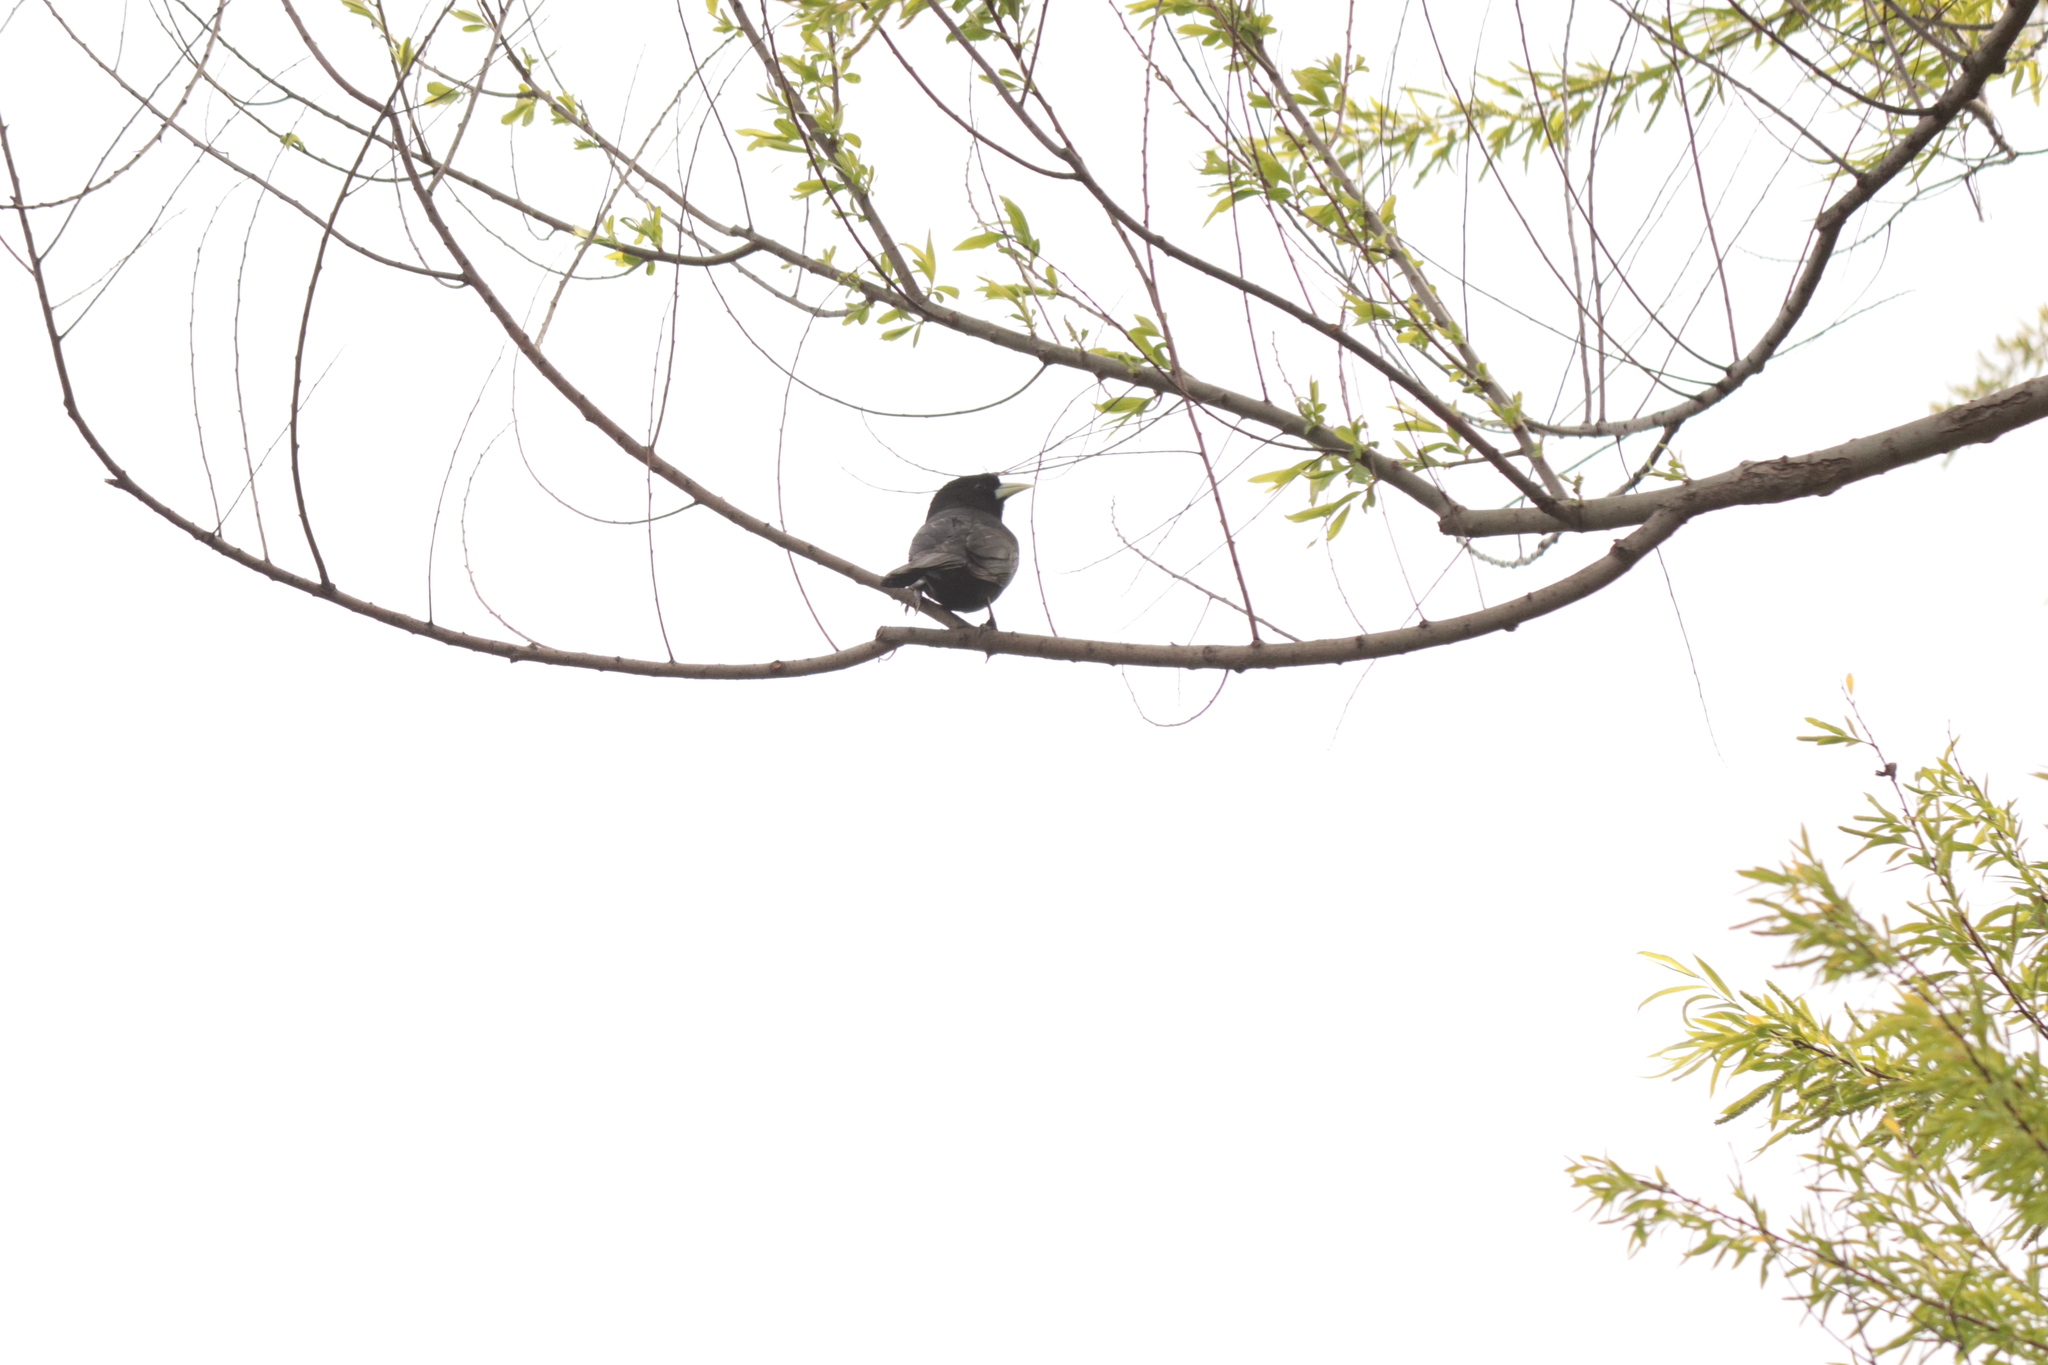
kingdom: Animalia
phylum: Chordata
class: Aves
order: Passeriformes
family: Icteridae
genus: Cacicus
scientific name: Cacicus solitarius
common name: Solitary cacique
